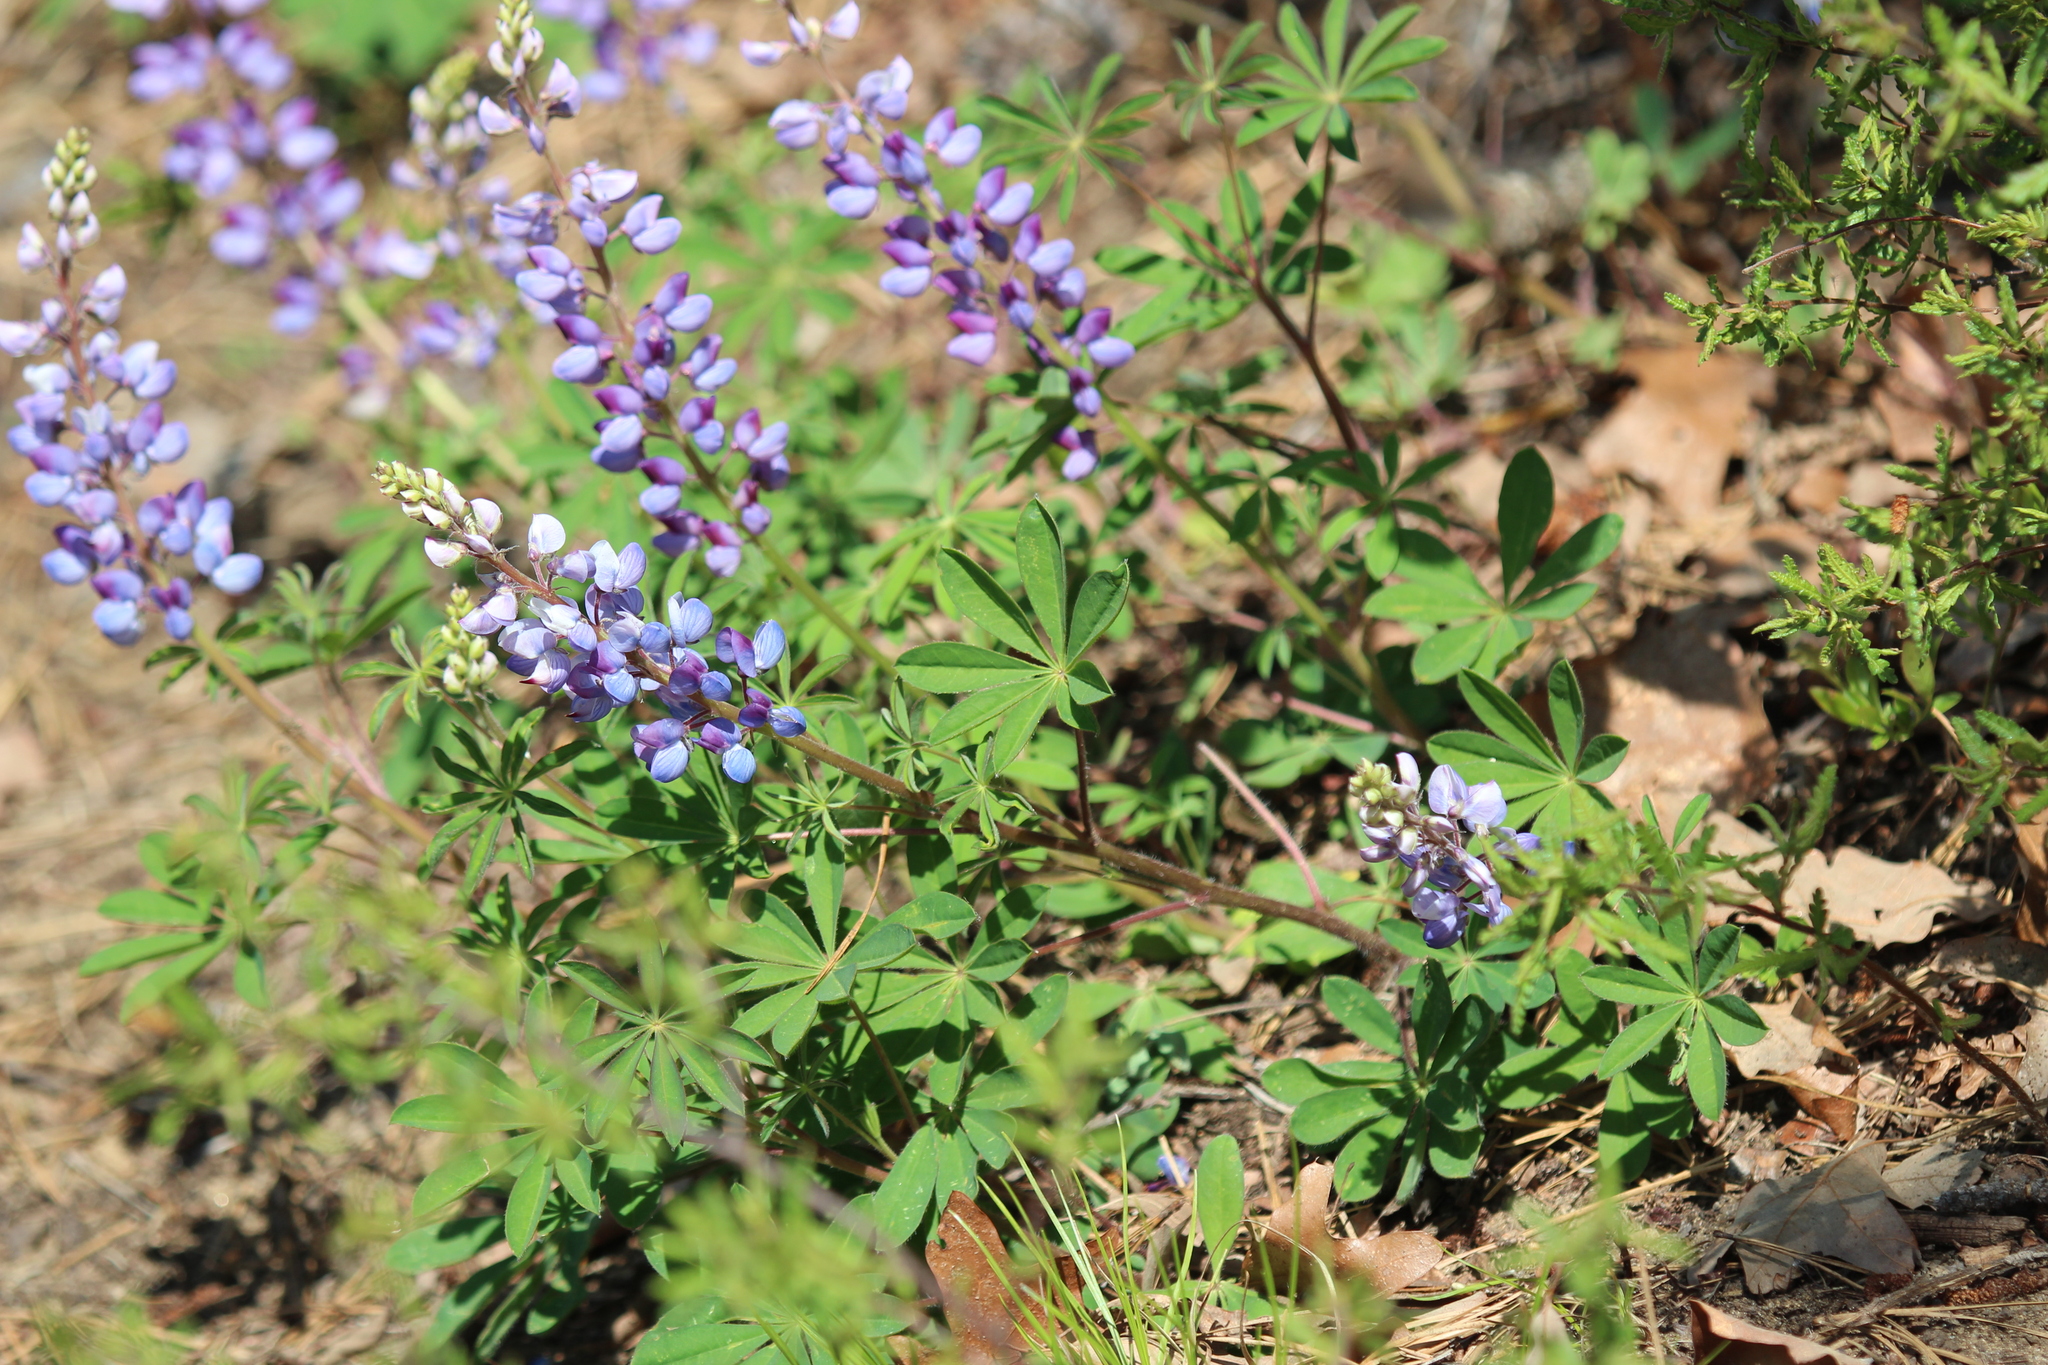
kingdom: Plantae
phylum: Tracheophyta
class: Magnoliopsida
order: Fabales
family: Fabaceae
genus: Lupinus
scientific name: Lupinus perennis
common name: Sundial lupine
